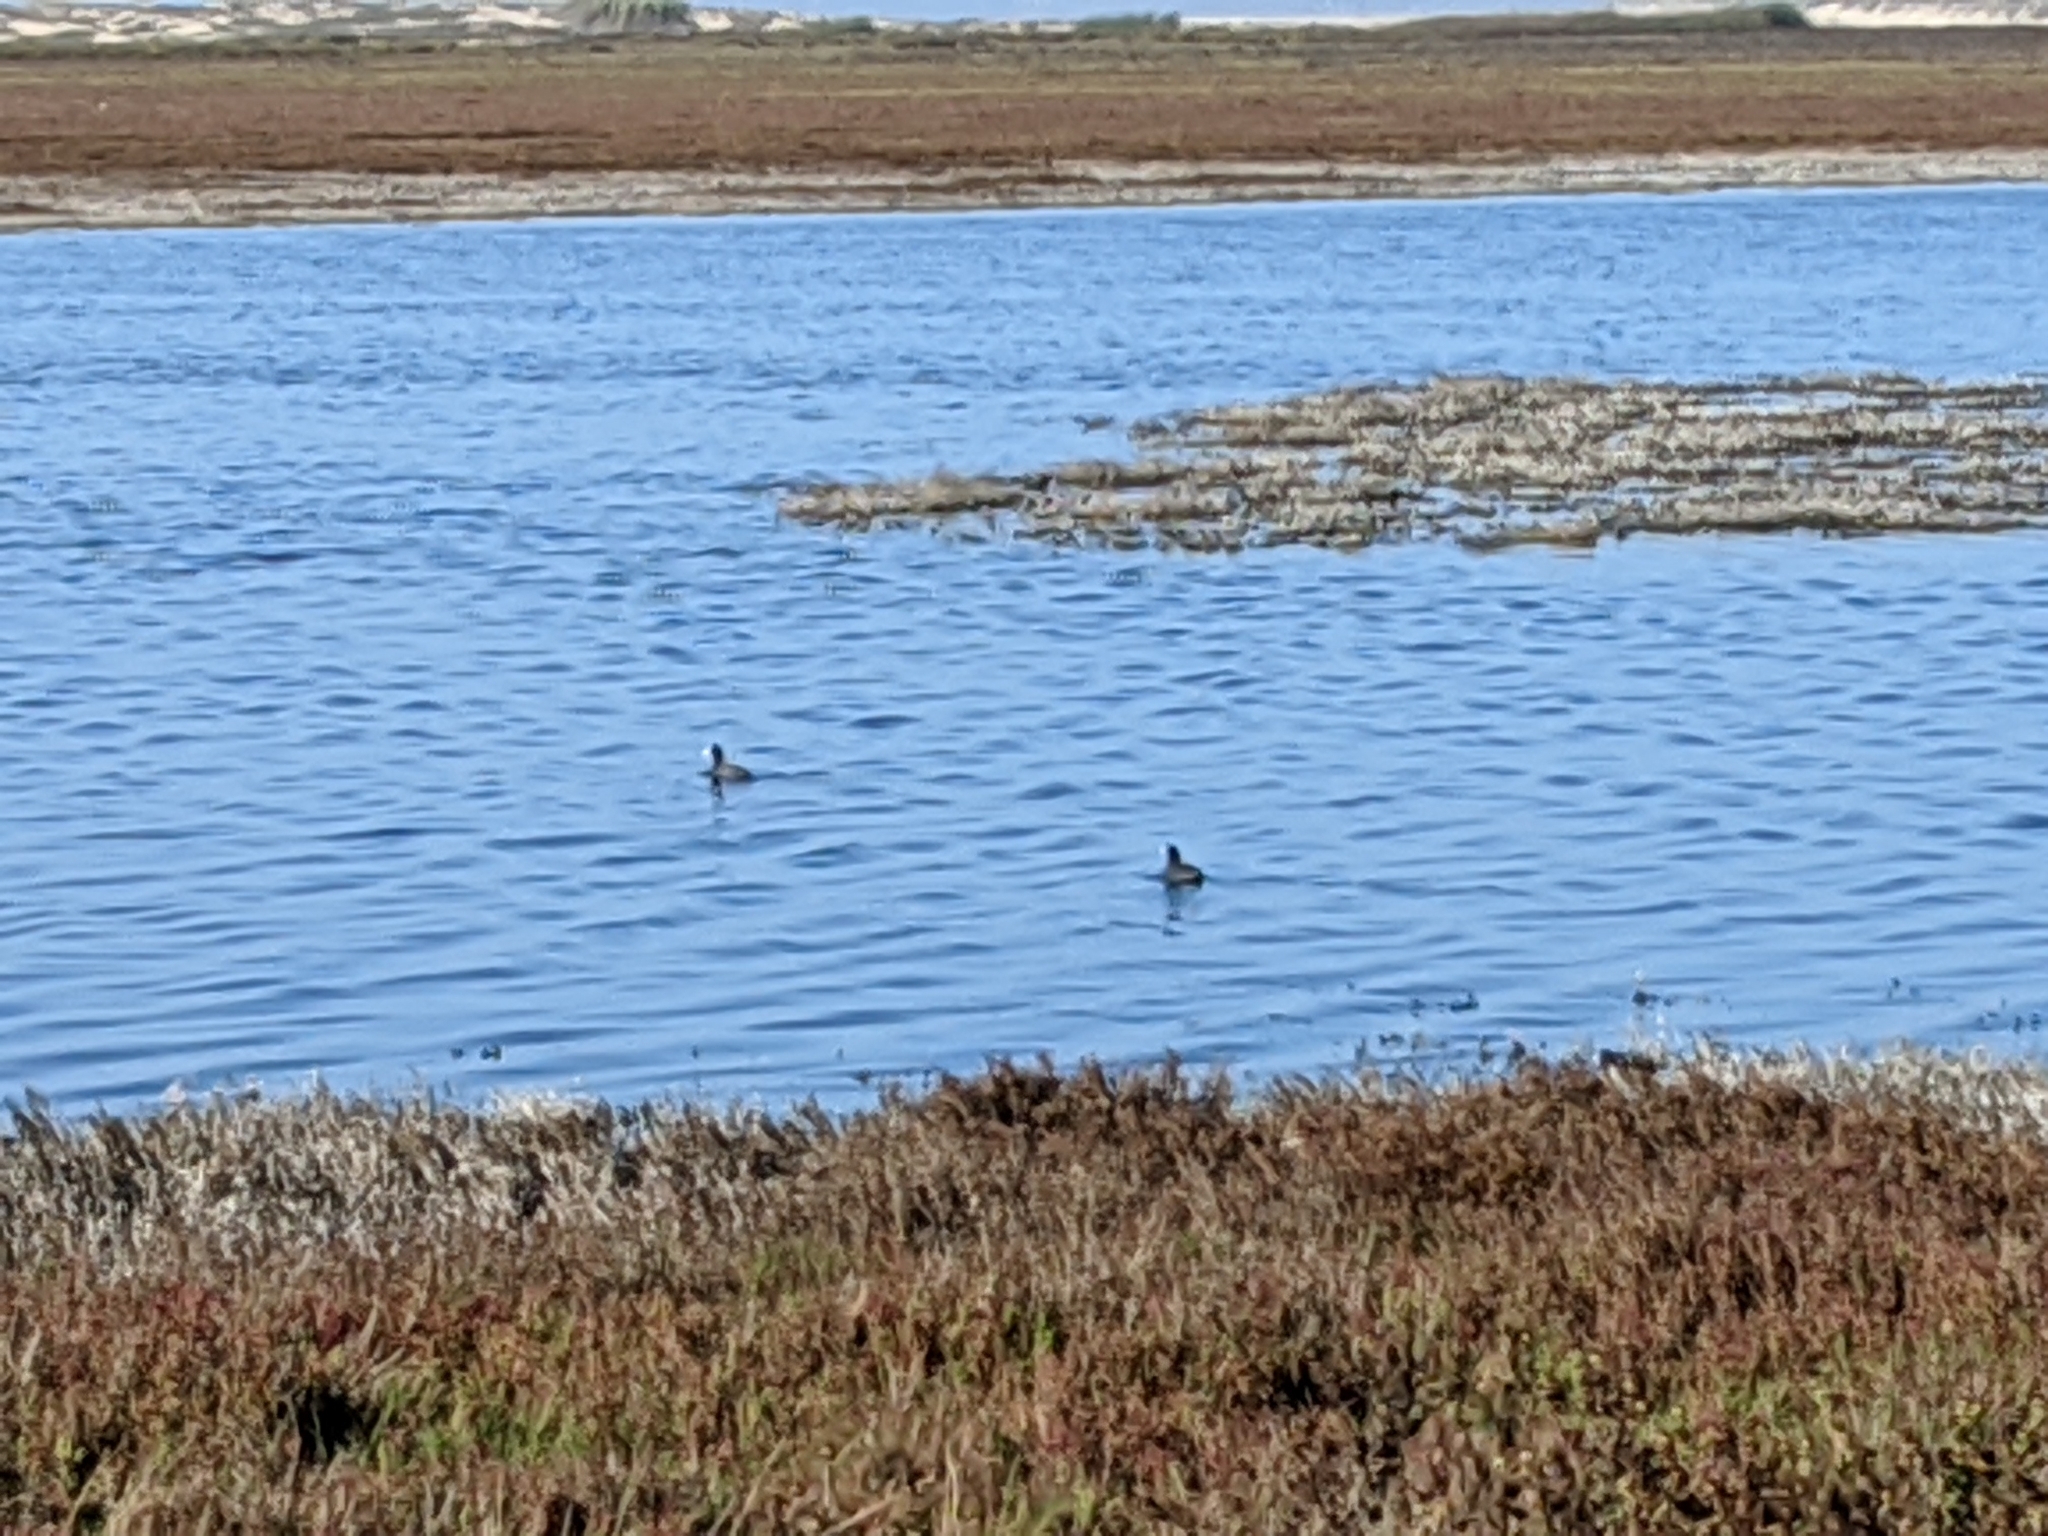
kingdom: Animalia
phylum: Chordata
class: Aves
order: Gruiformes
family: Rallidae
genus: Fulica
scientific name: Fulica americana
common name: American coot
